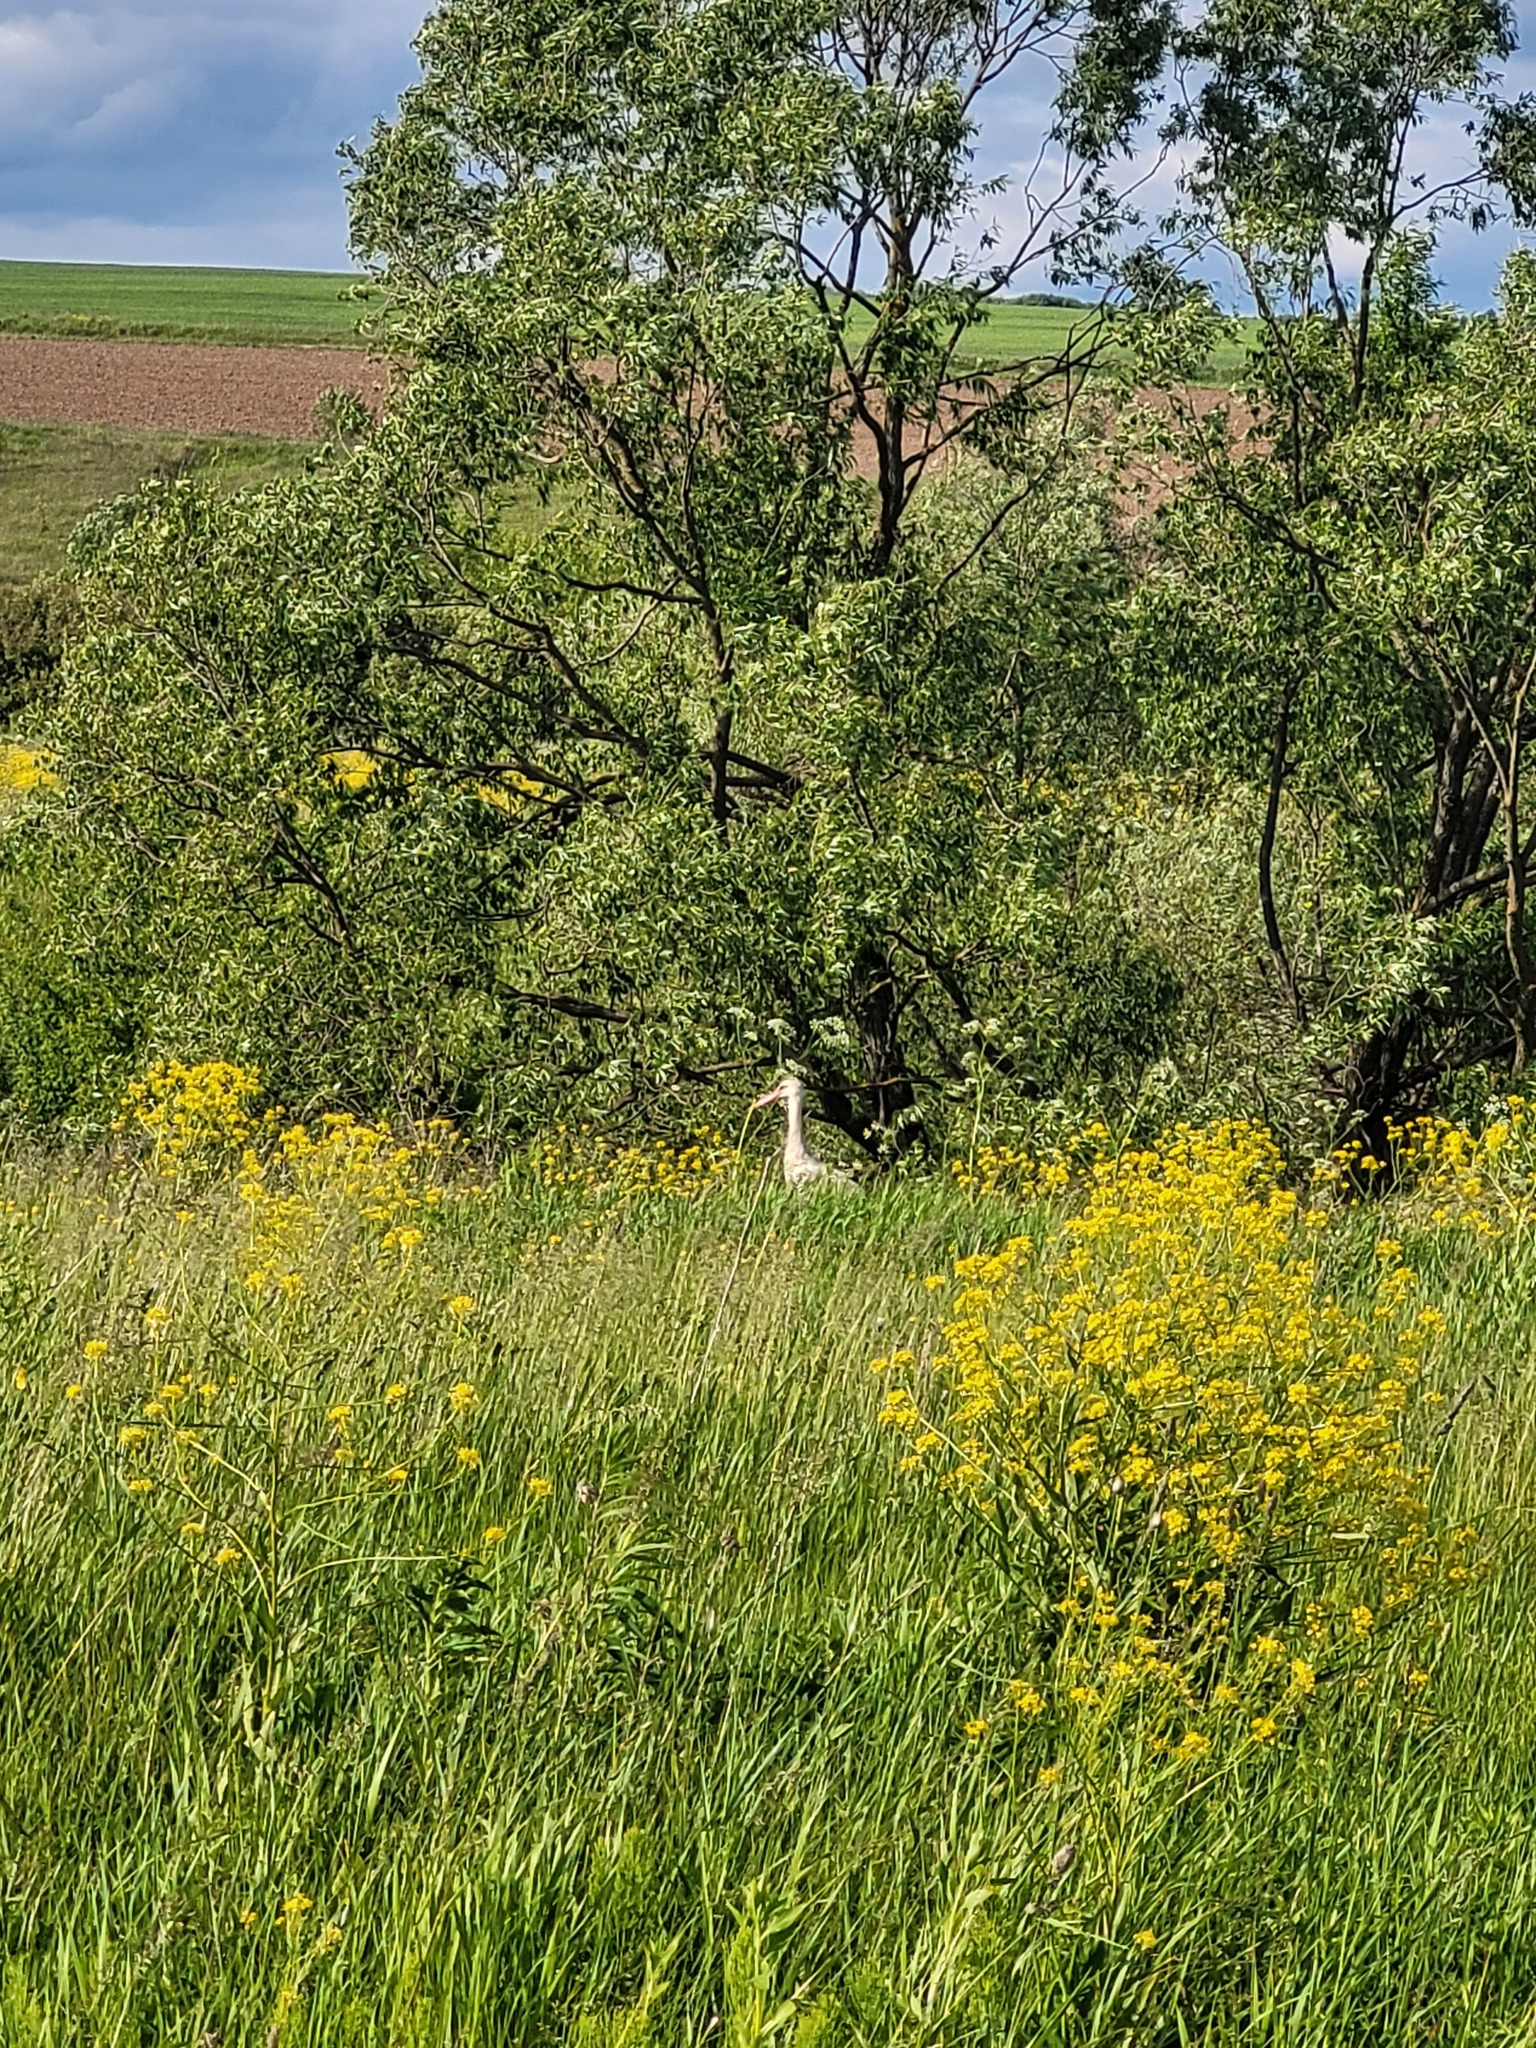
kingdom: Animalia
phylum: Chordata
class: Aves
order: Ciconiiformes
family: Ciconiidae
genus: Ciconia
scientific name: Ciconia ciconia
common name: White stork
